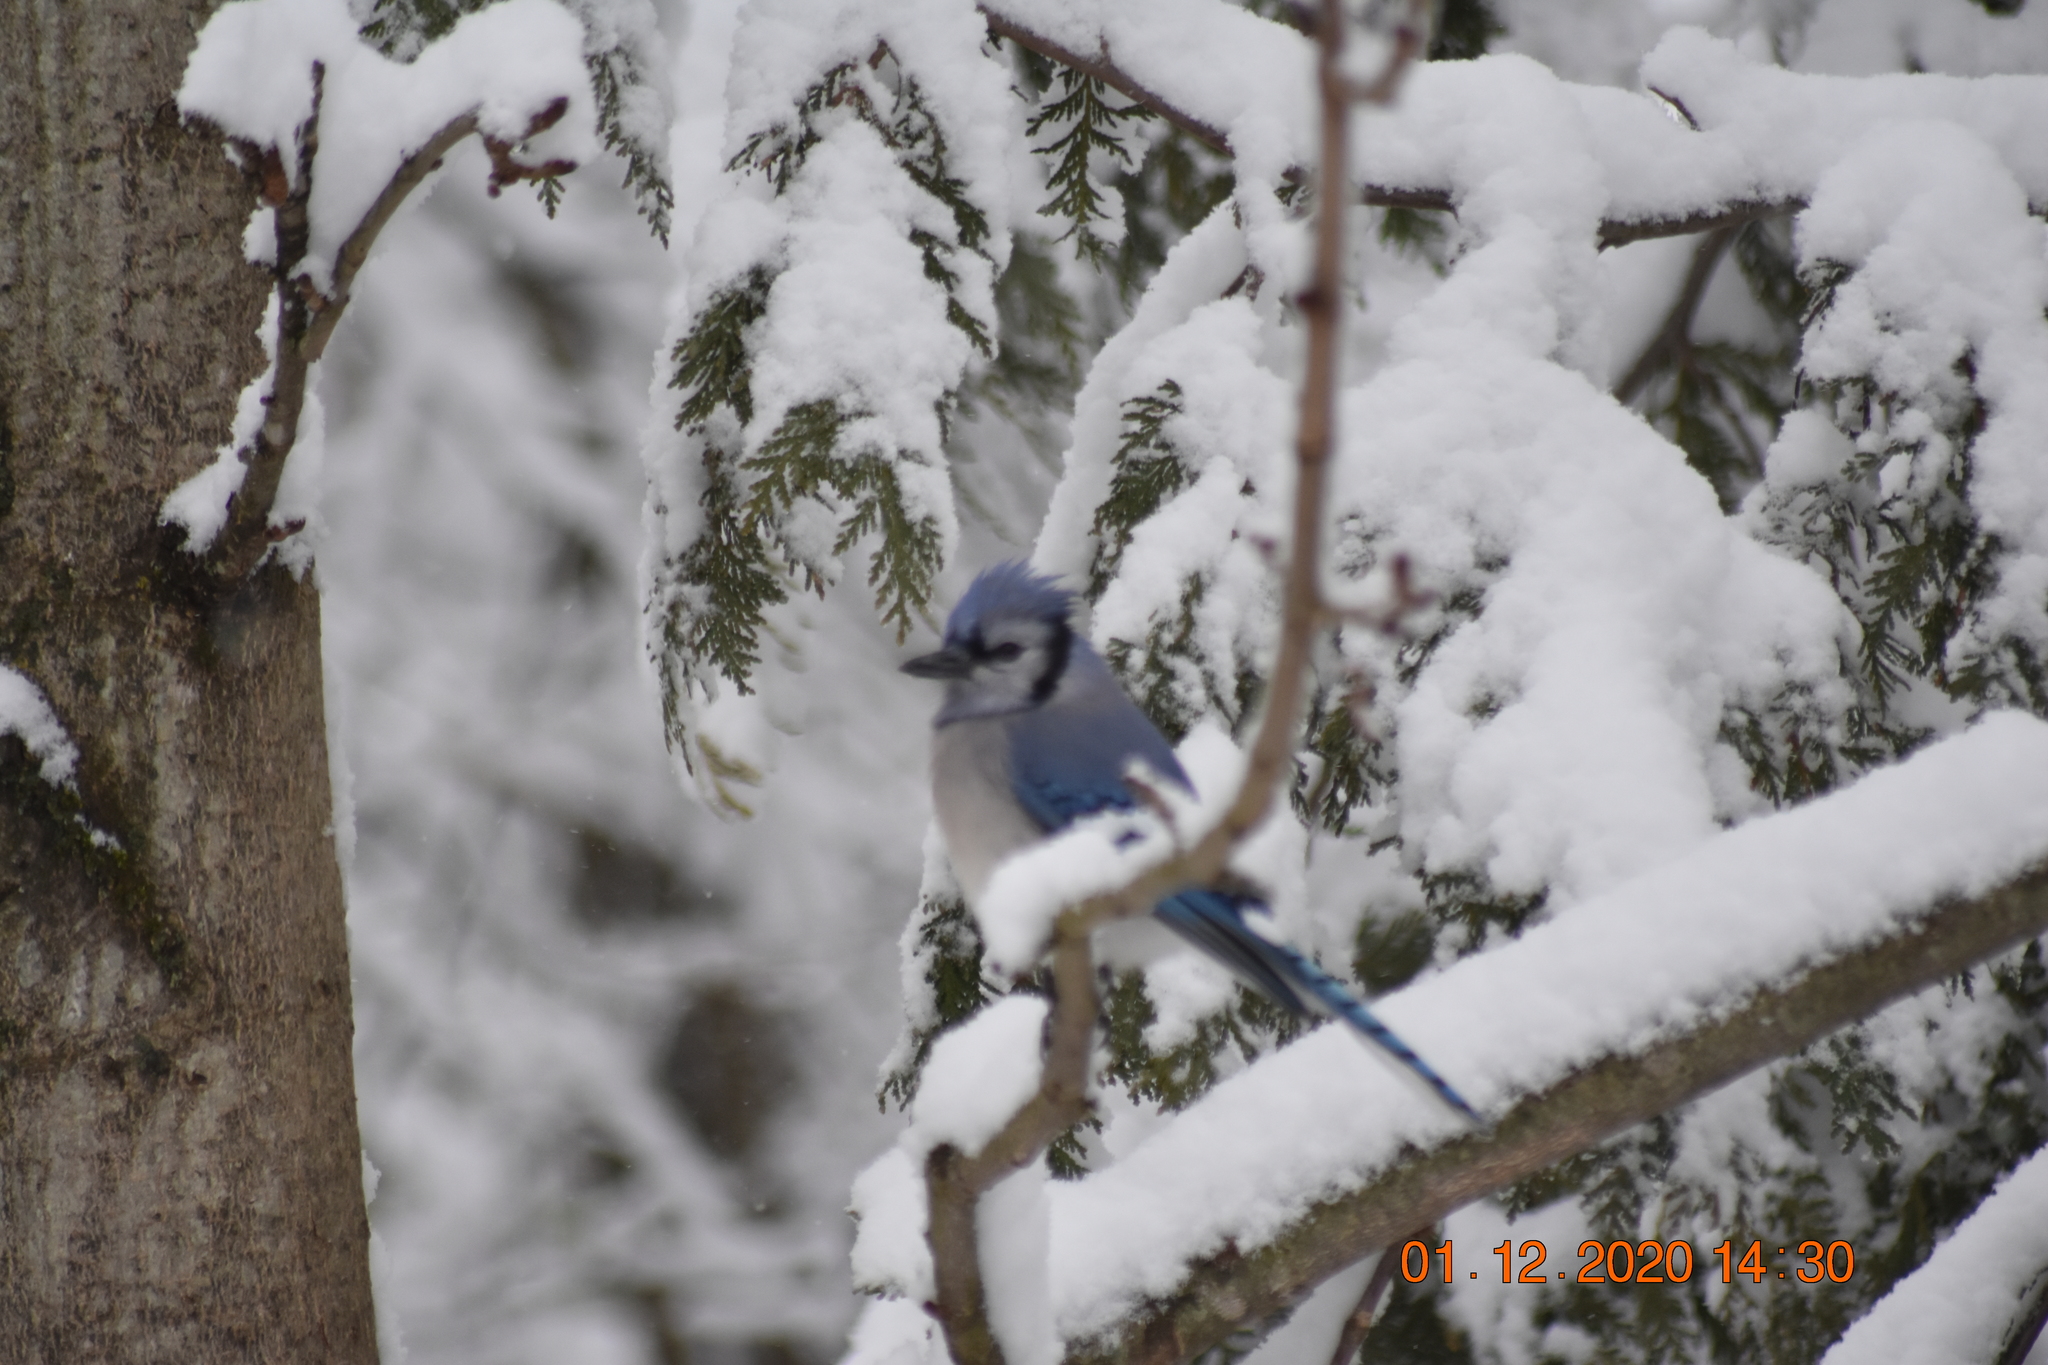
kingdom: Animalia
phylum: Chordata
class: Aves
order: Passeriformes
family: Corvidae
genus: Cyanocitta
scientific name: Cyanocitta cristata
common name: Blue jay
